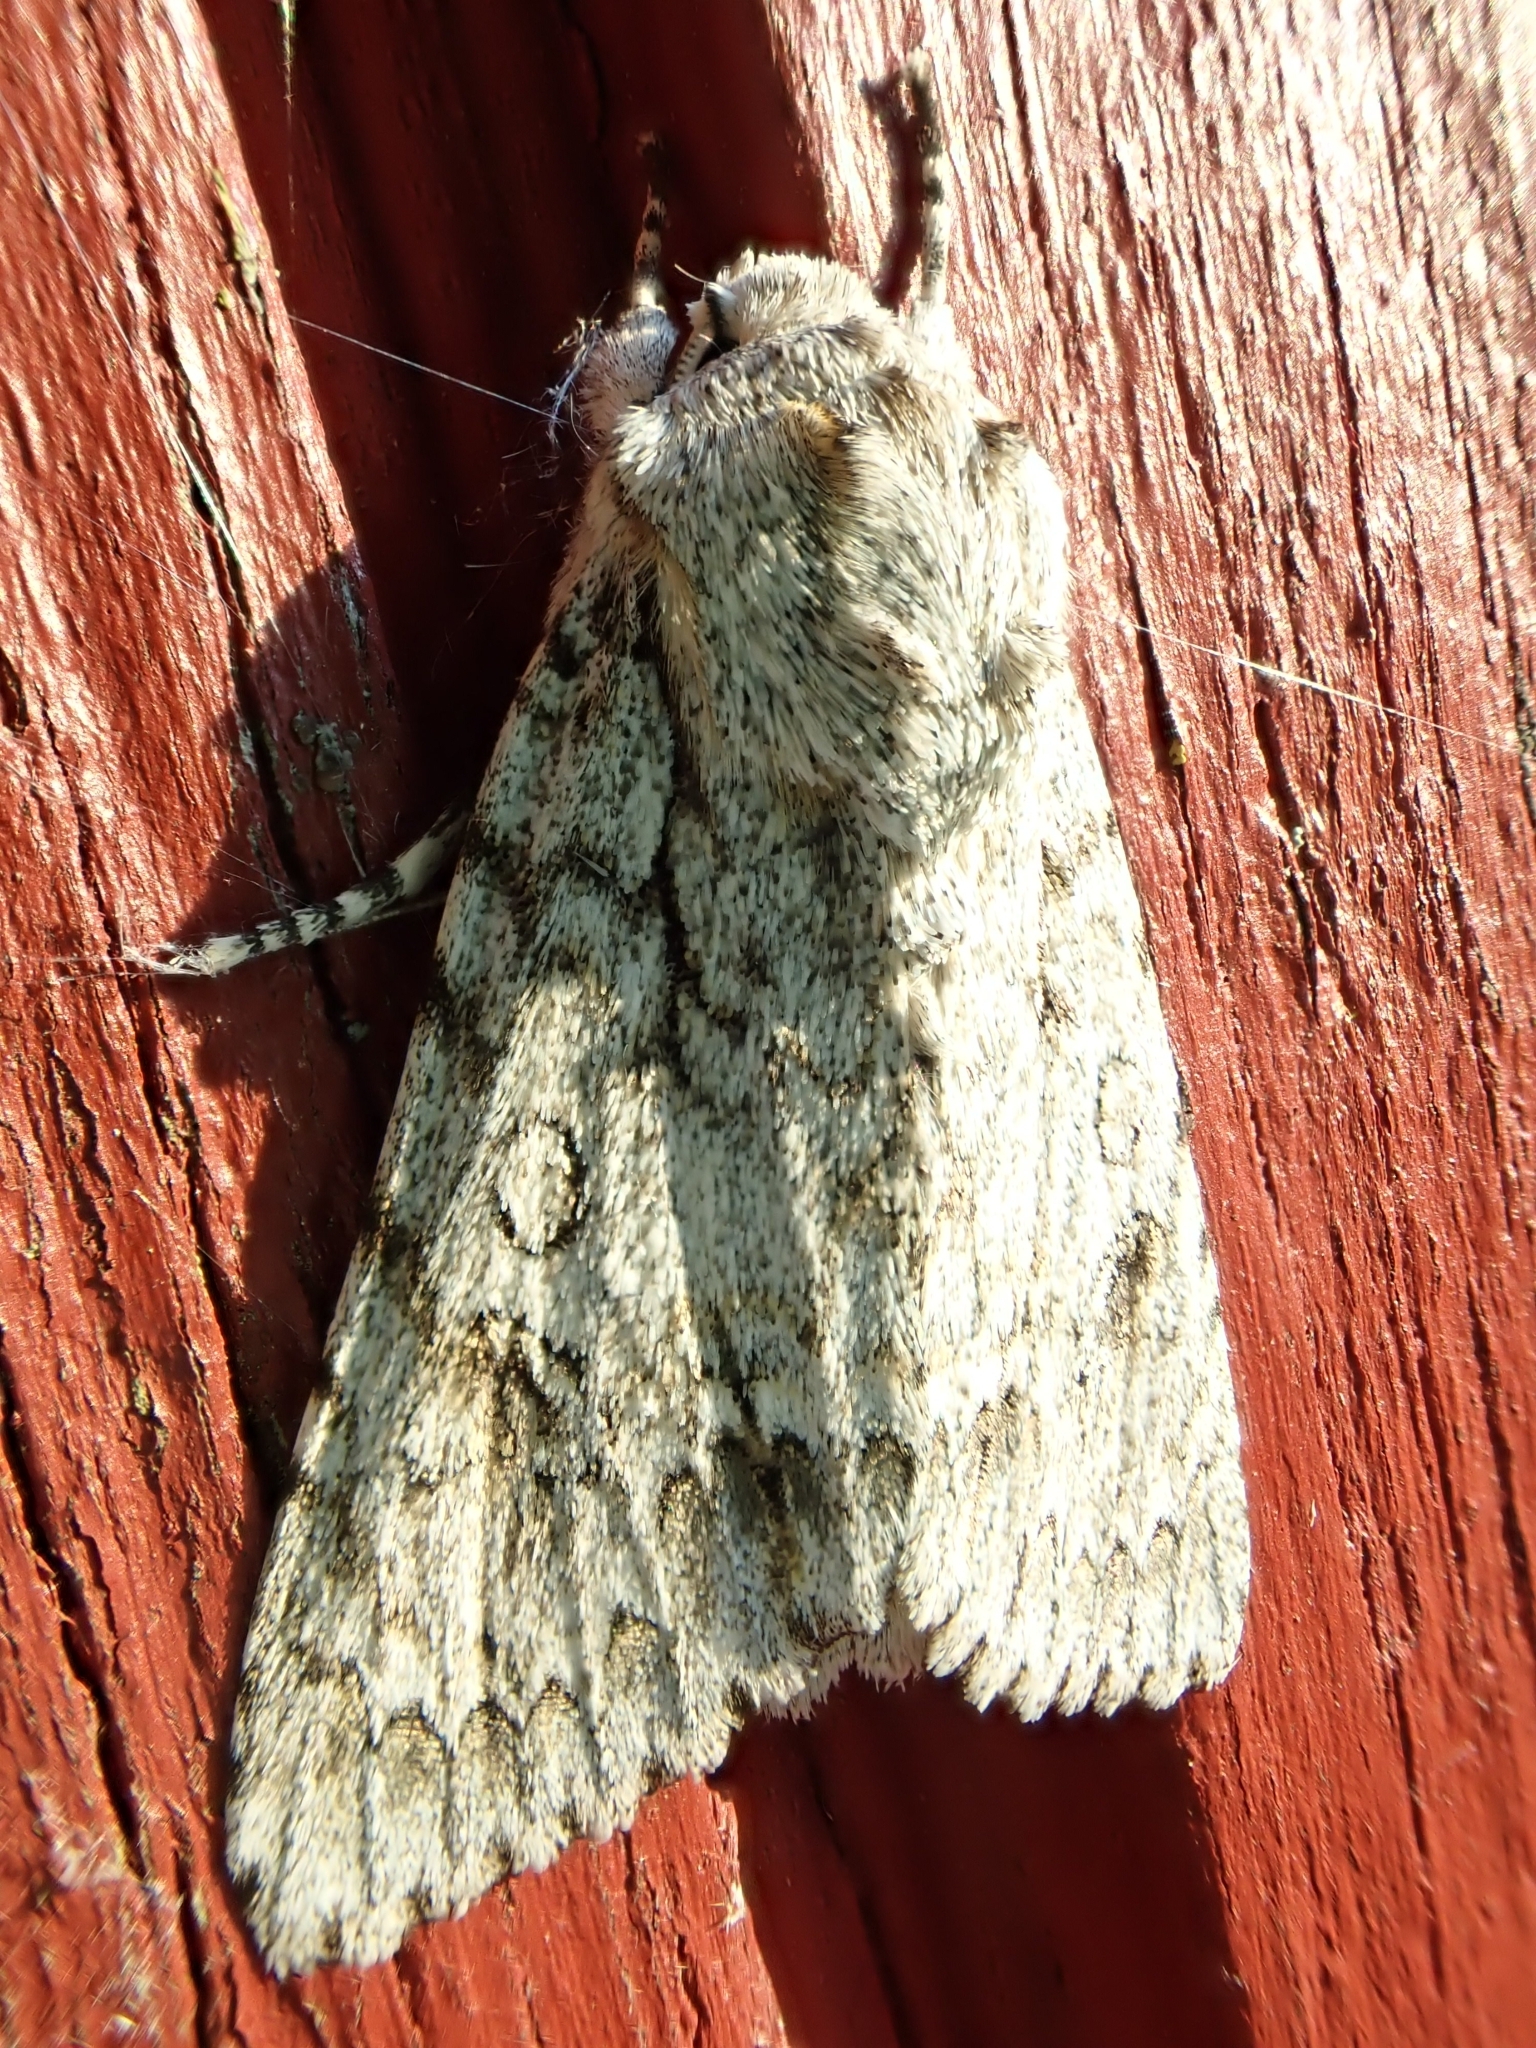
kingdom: Animalia
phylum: Arthropoda
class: Insecta
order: Lepidoptera
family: Noctuidae
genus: Acronicta
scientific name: Acronicta aceris
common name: Sycamore
